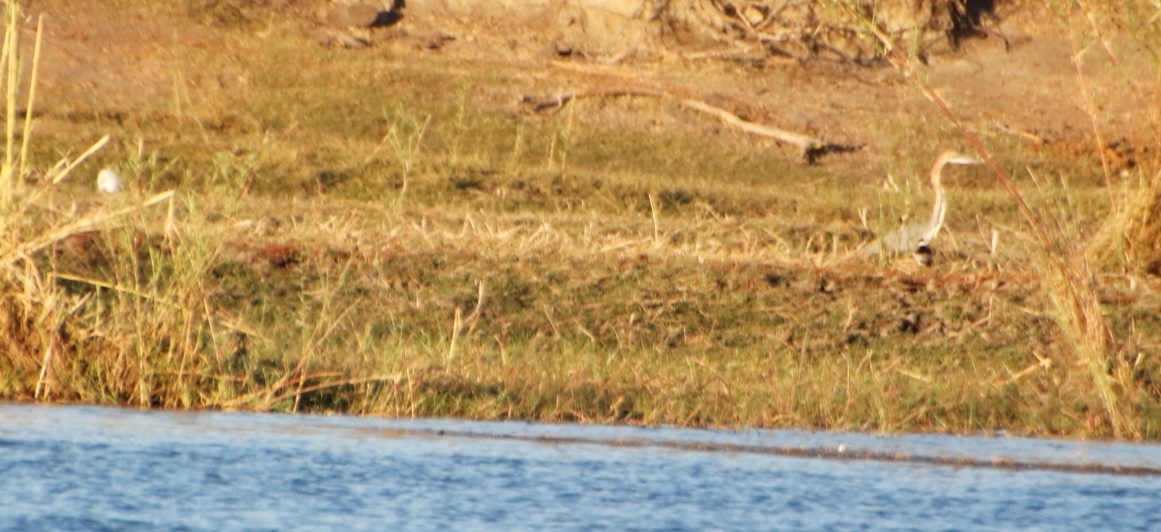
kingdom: Animalia
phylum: Chordata
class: Aves
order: Pelecaniformes
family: Ardeidae
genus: Ardea
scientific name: Ardea goliath
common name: Goliath heron
